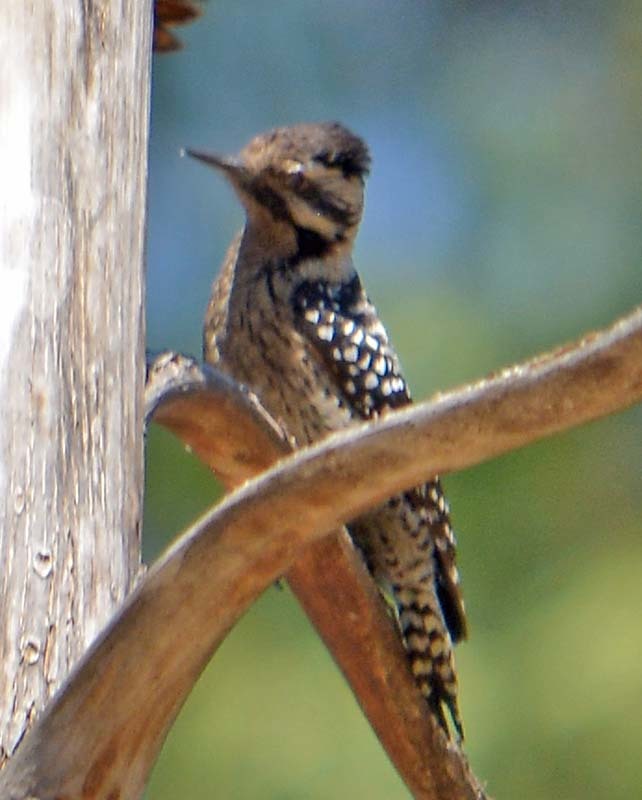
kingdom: Animalia
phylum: Chordata
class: Aves
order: Piciformes
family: Picidae
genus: Dryobates
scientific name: Dryobates scalaris
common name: Ladder-backed woodpecker
